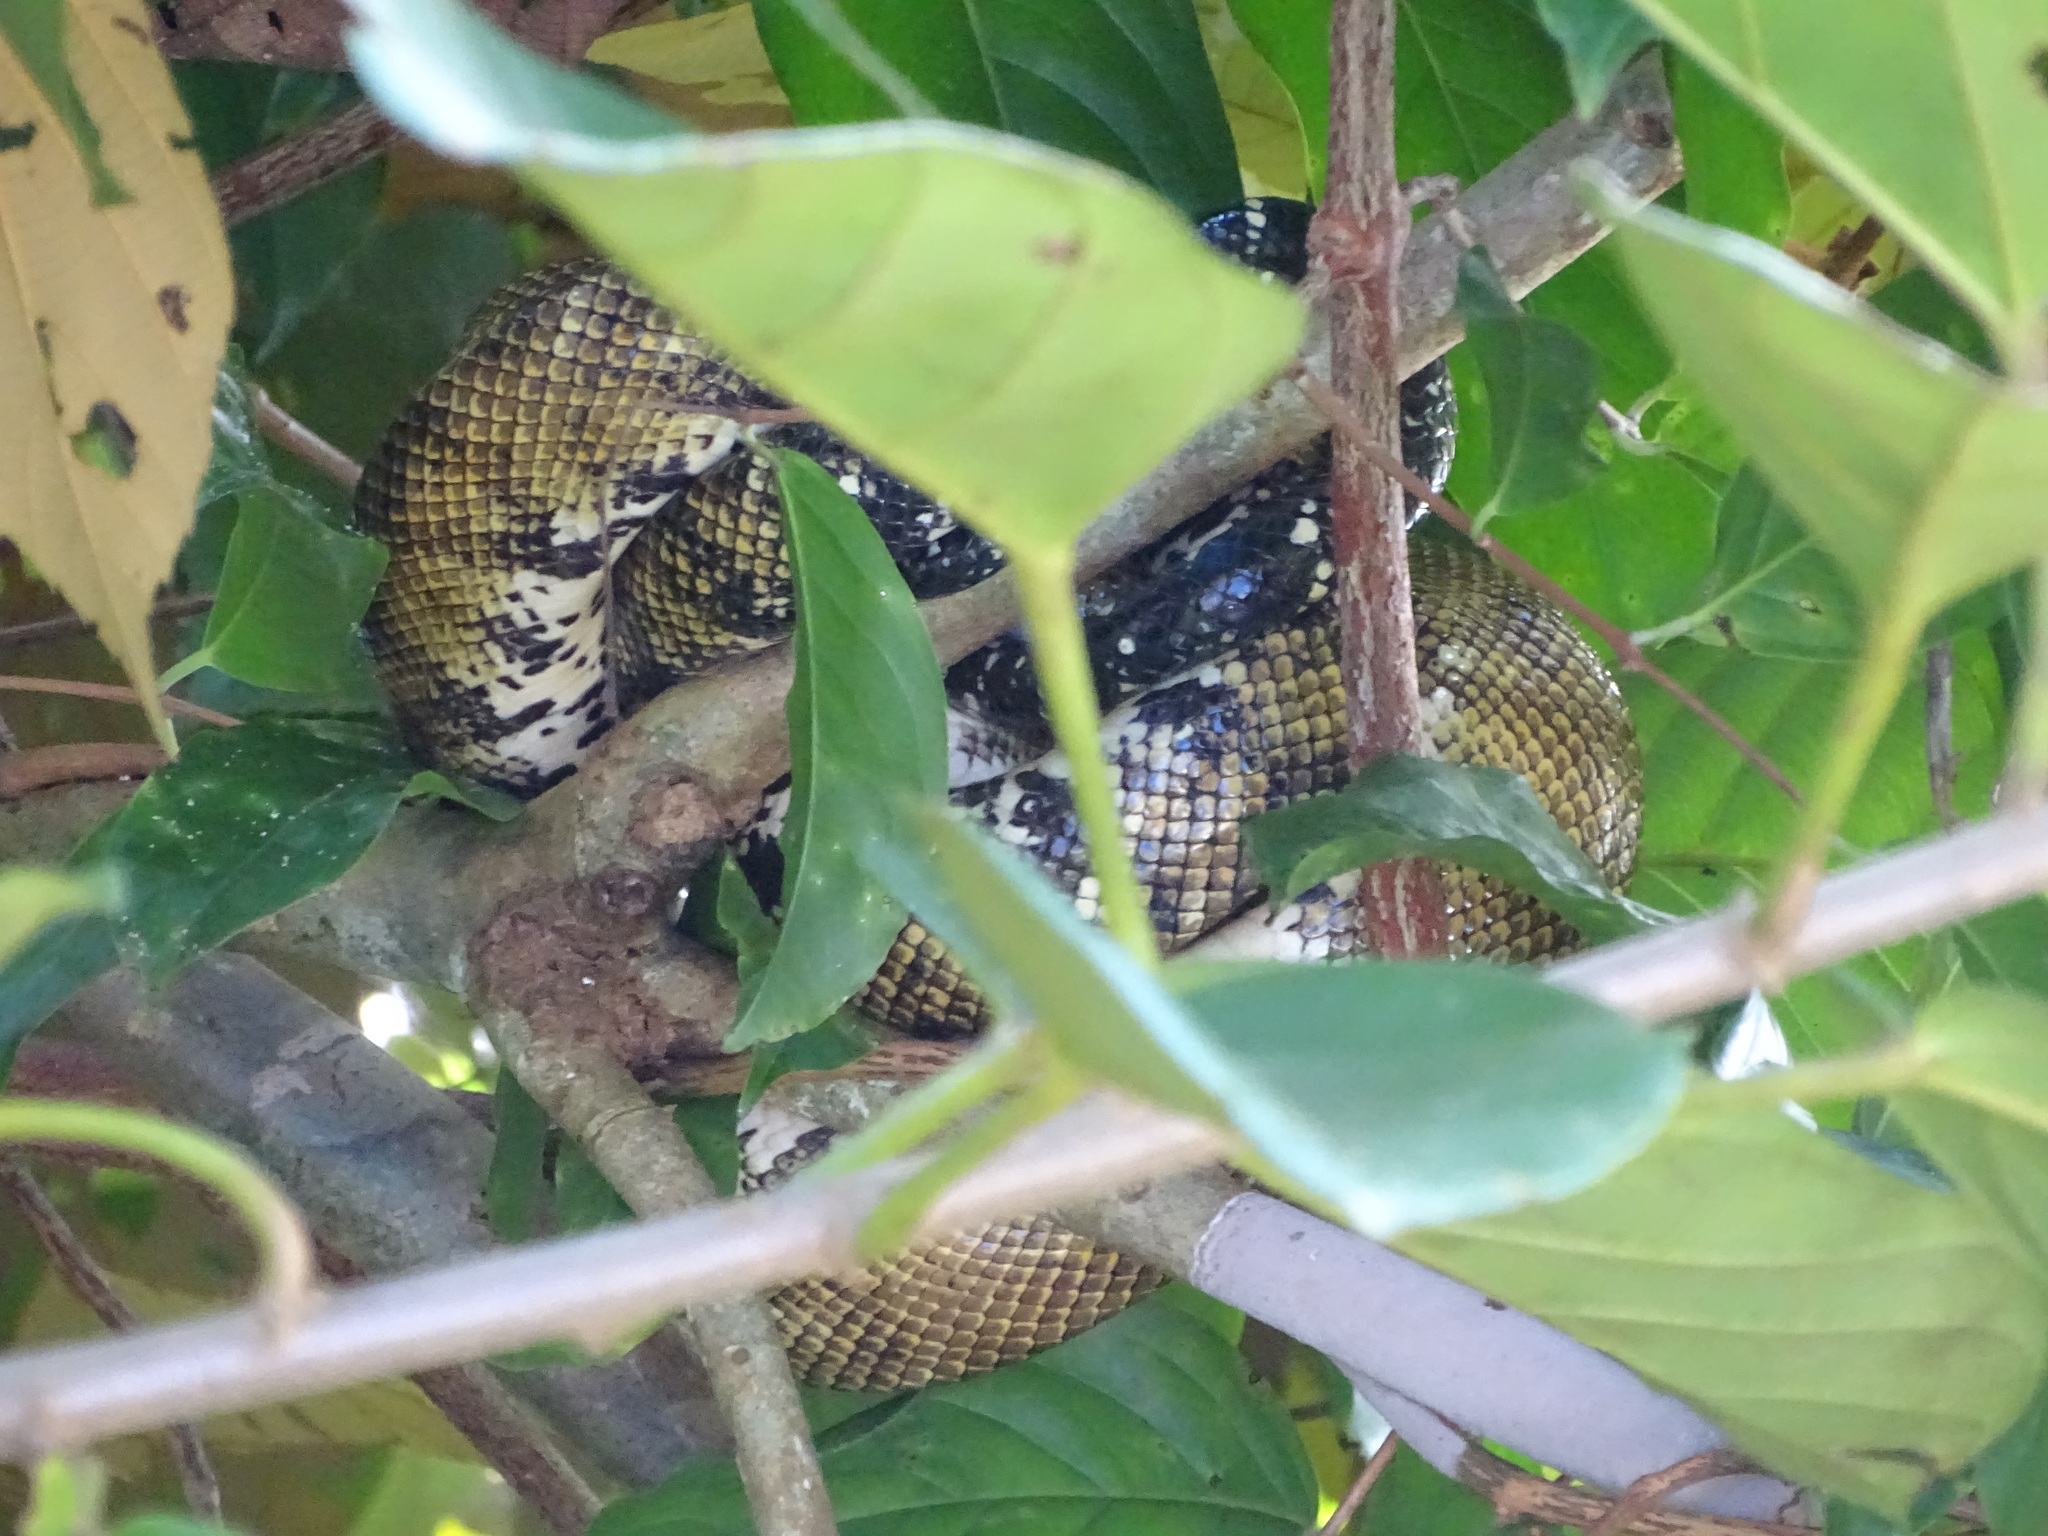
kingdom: Animalia
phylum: Chordata
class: Squamata
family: Boidae
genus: Corallus
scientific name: Corallus ruschenbergerii
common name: Dormilona
